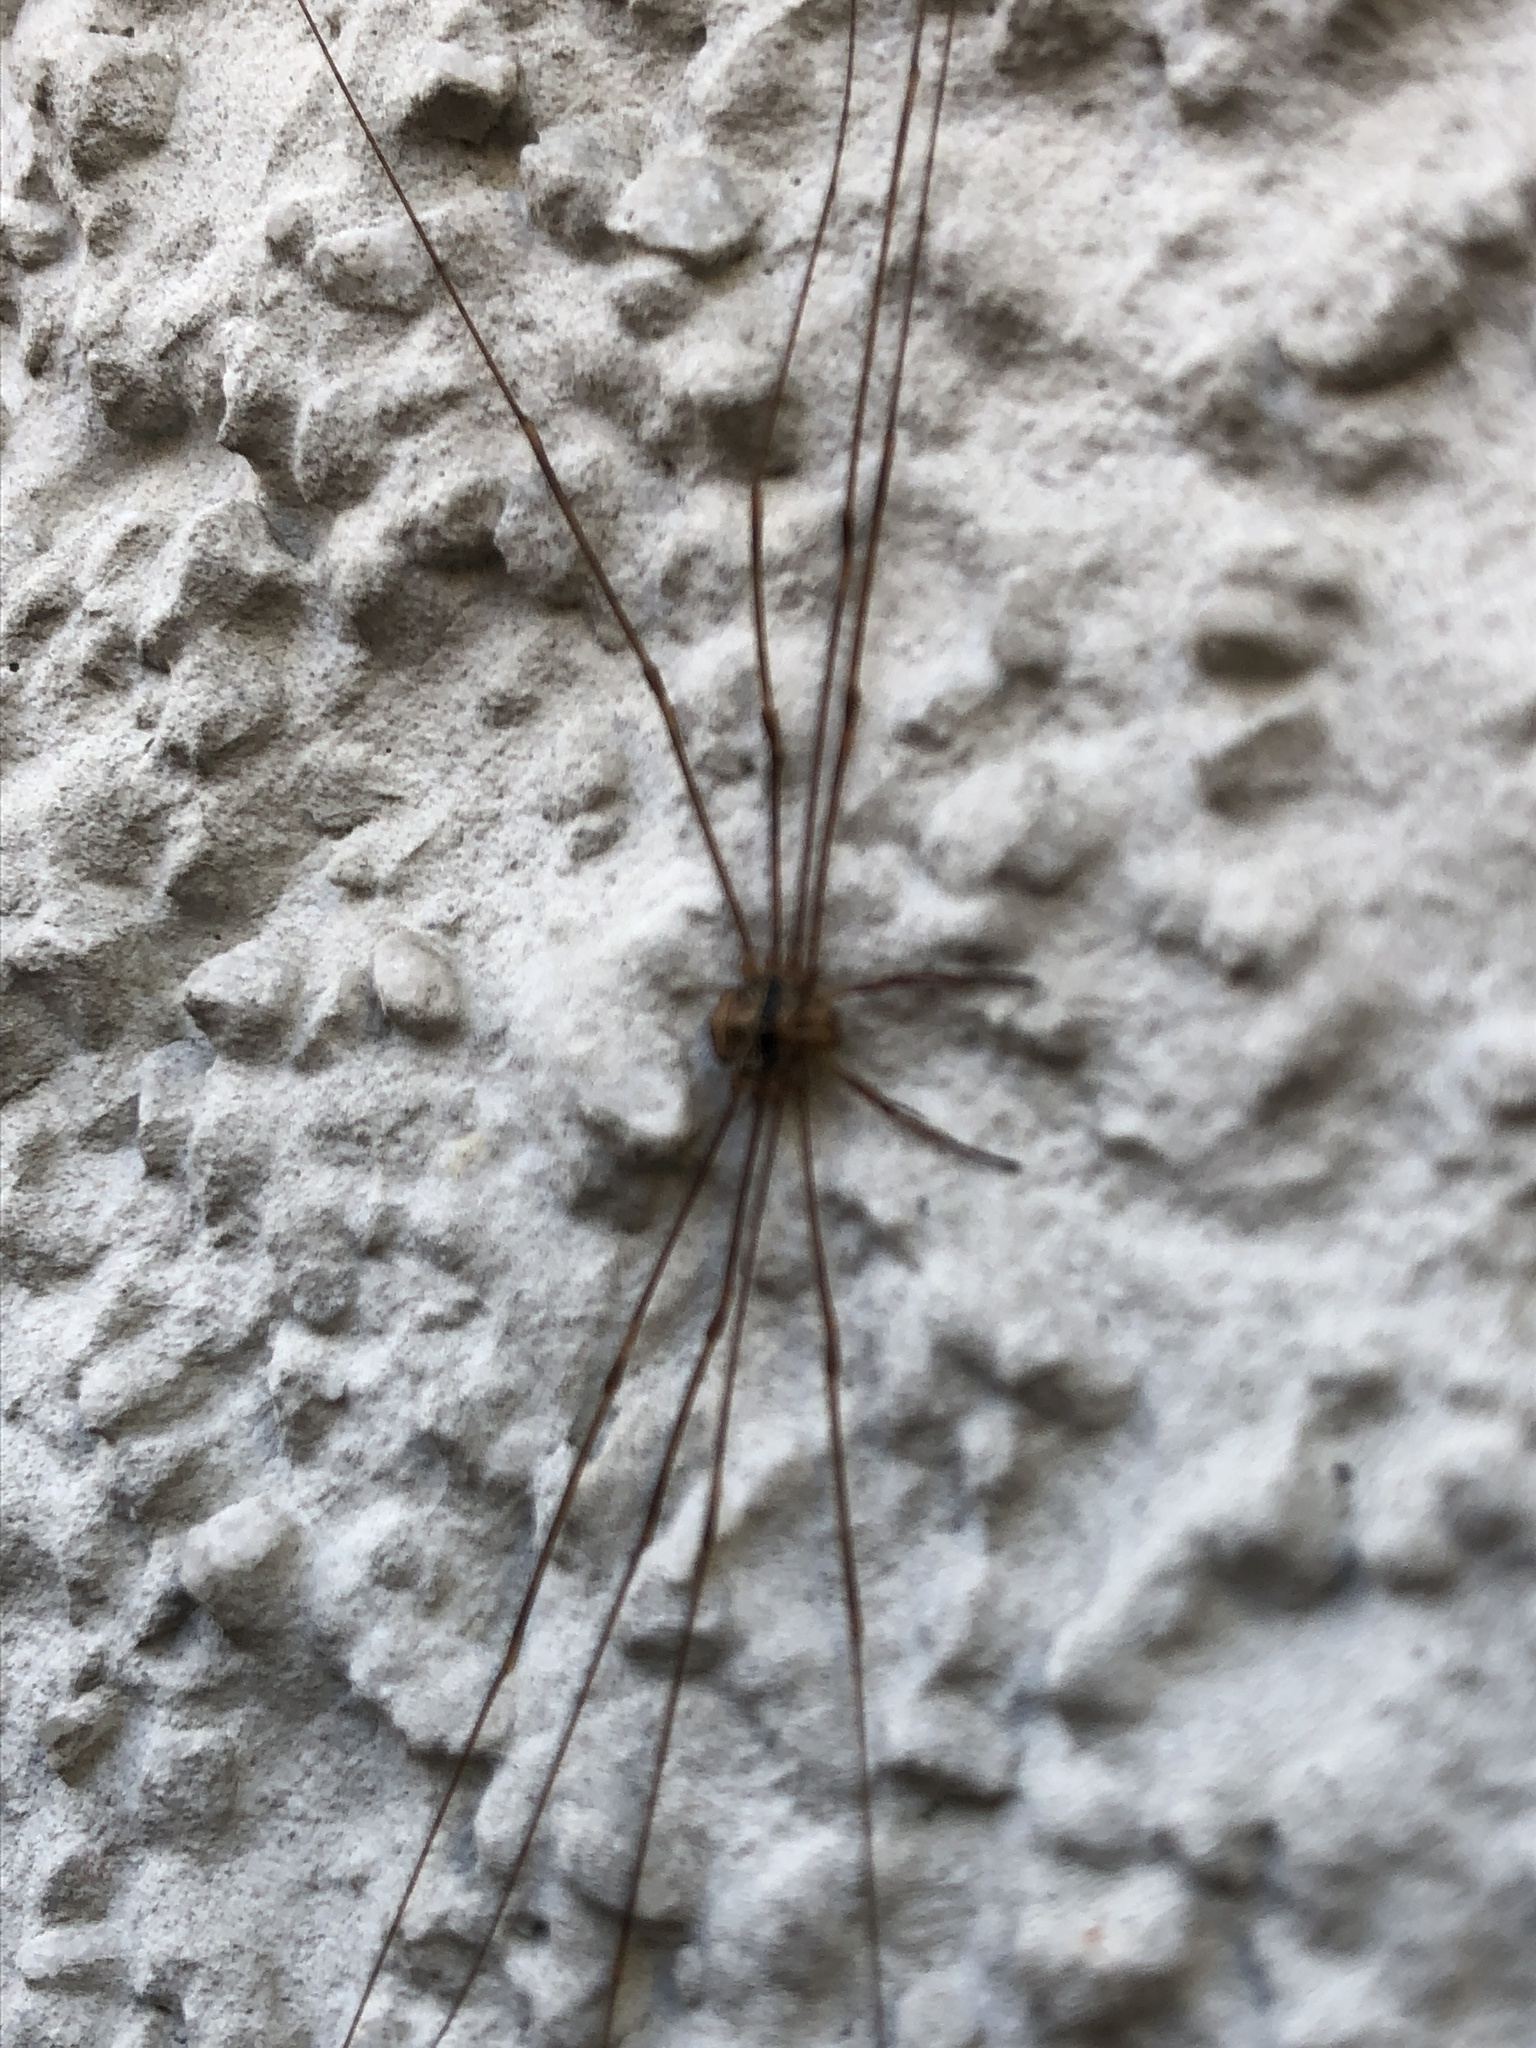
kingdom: Animalia
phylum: Arthropoda
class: Arachnida
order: Opiliones
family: Phalangiidae
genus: Dicranopalpus
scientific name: Dicranopalpus ramosus
